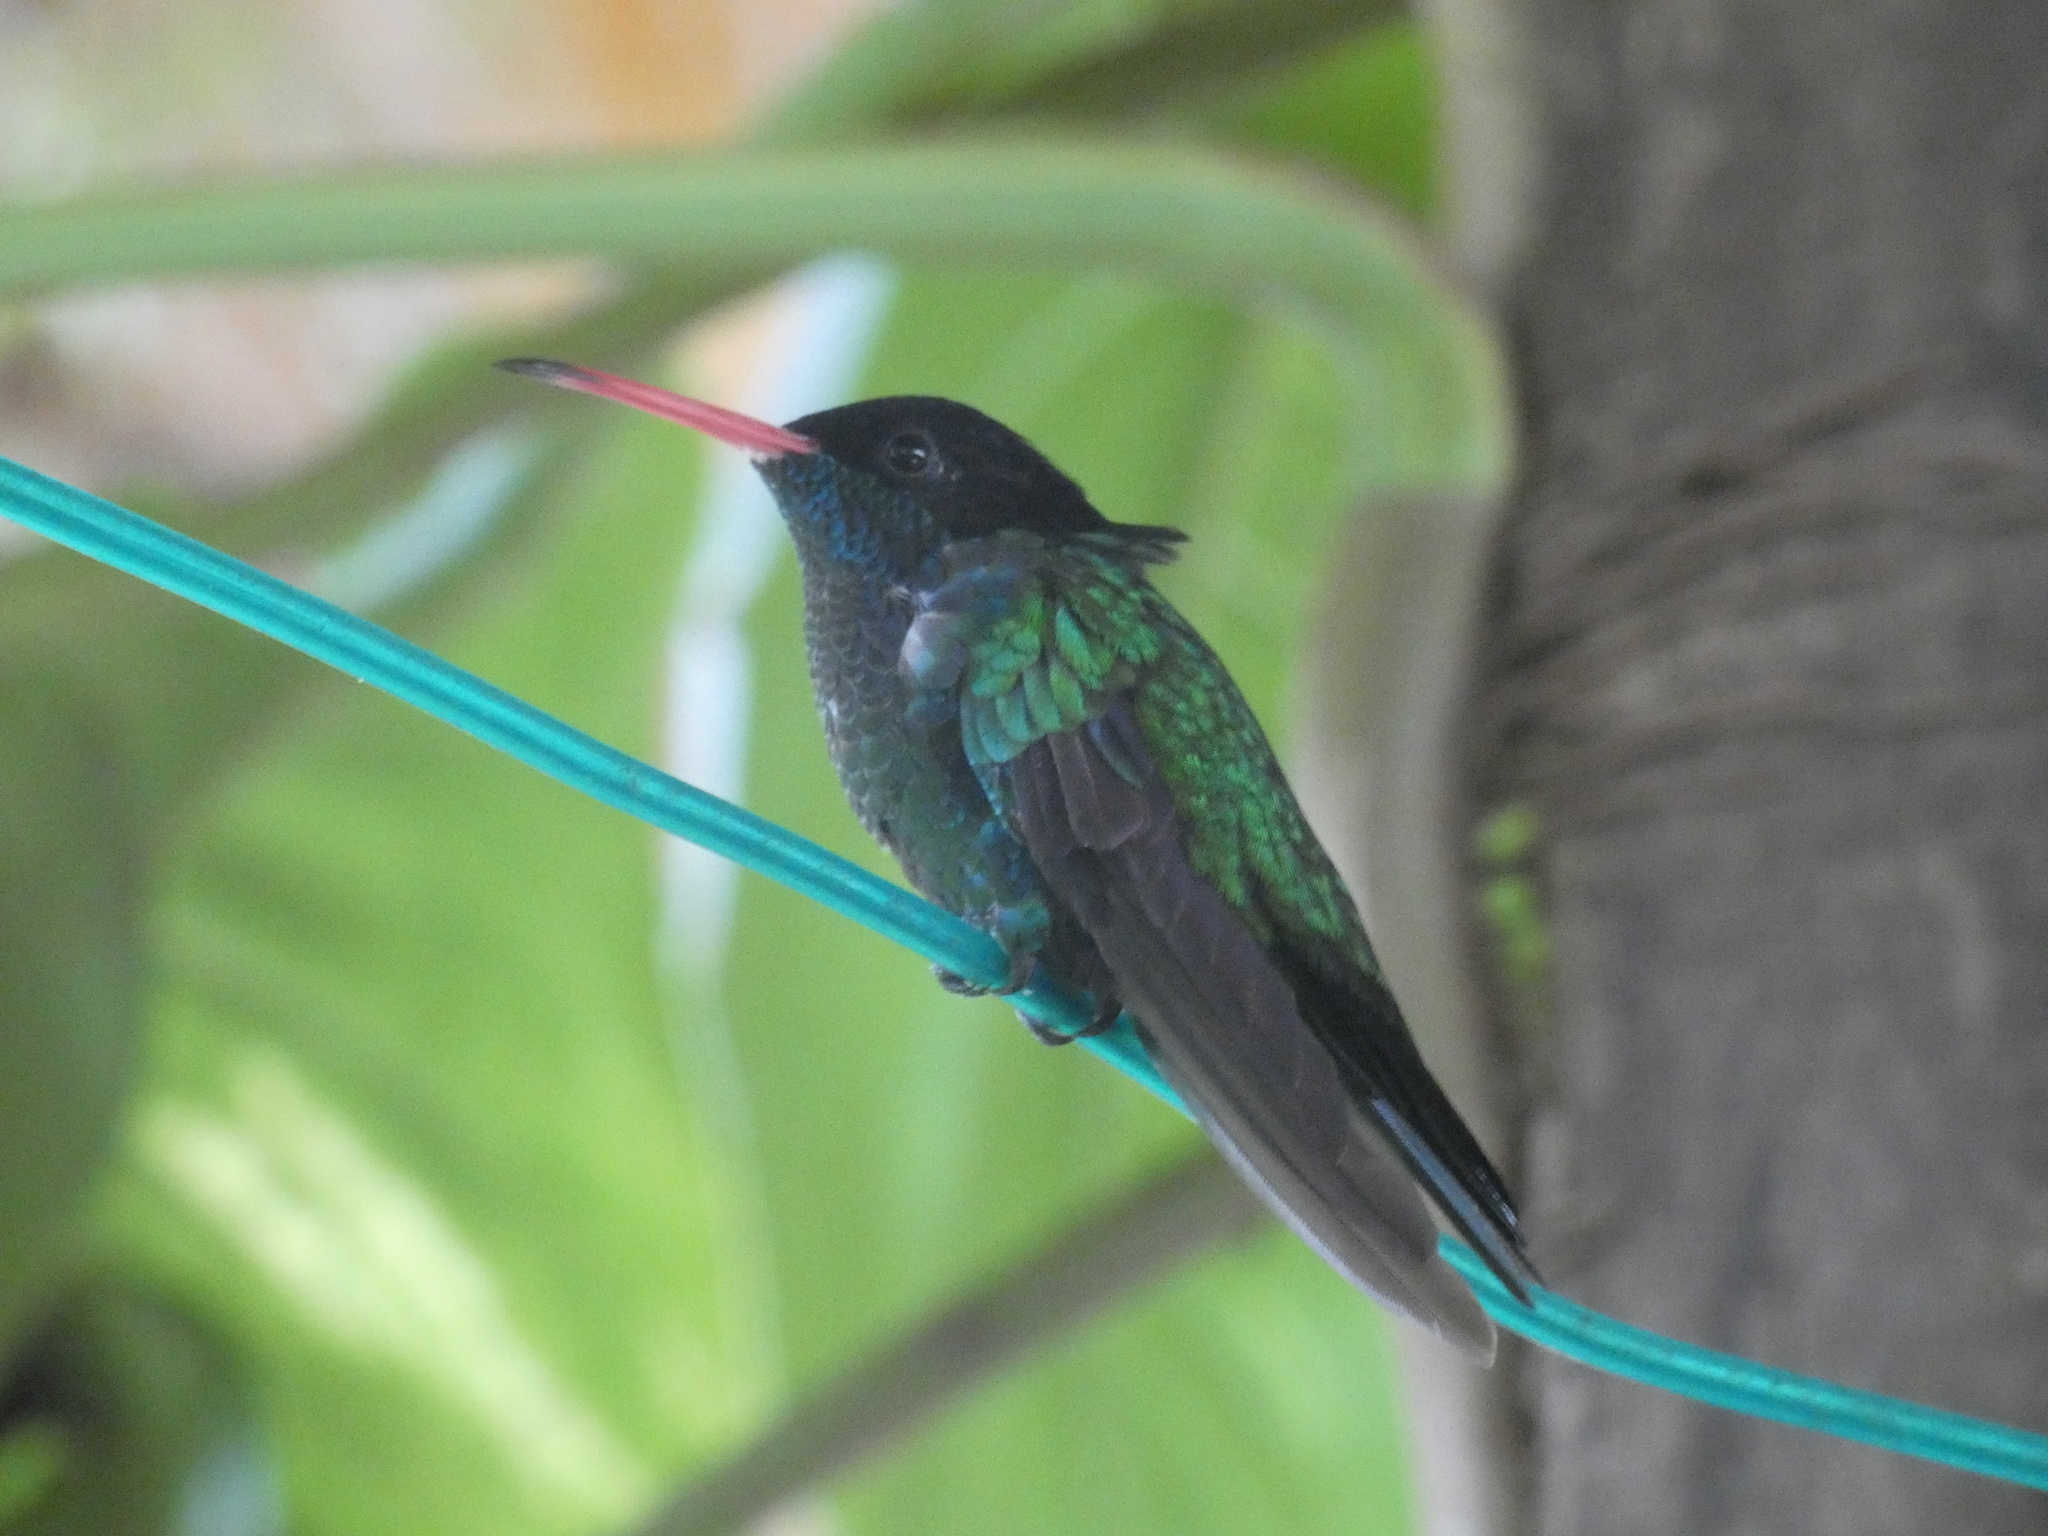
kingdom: Animalia
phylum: Chordata
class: Aves
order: Apodiformes
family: Trochilidae
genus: Trochilus
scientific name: Trochilus polytmus
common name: Red-billed streamertail
